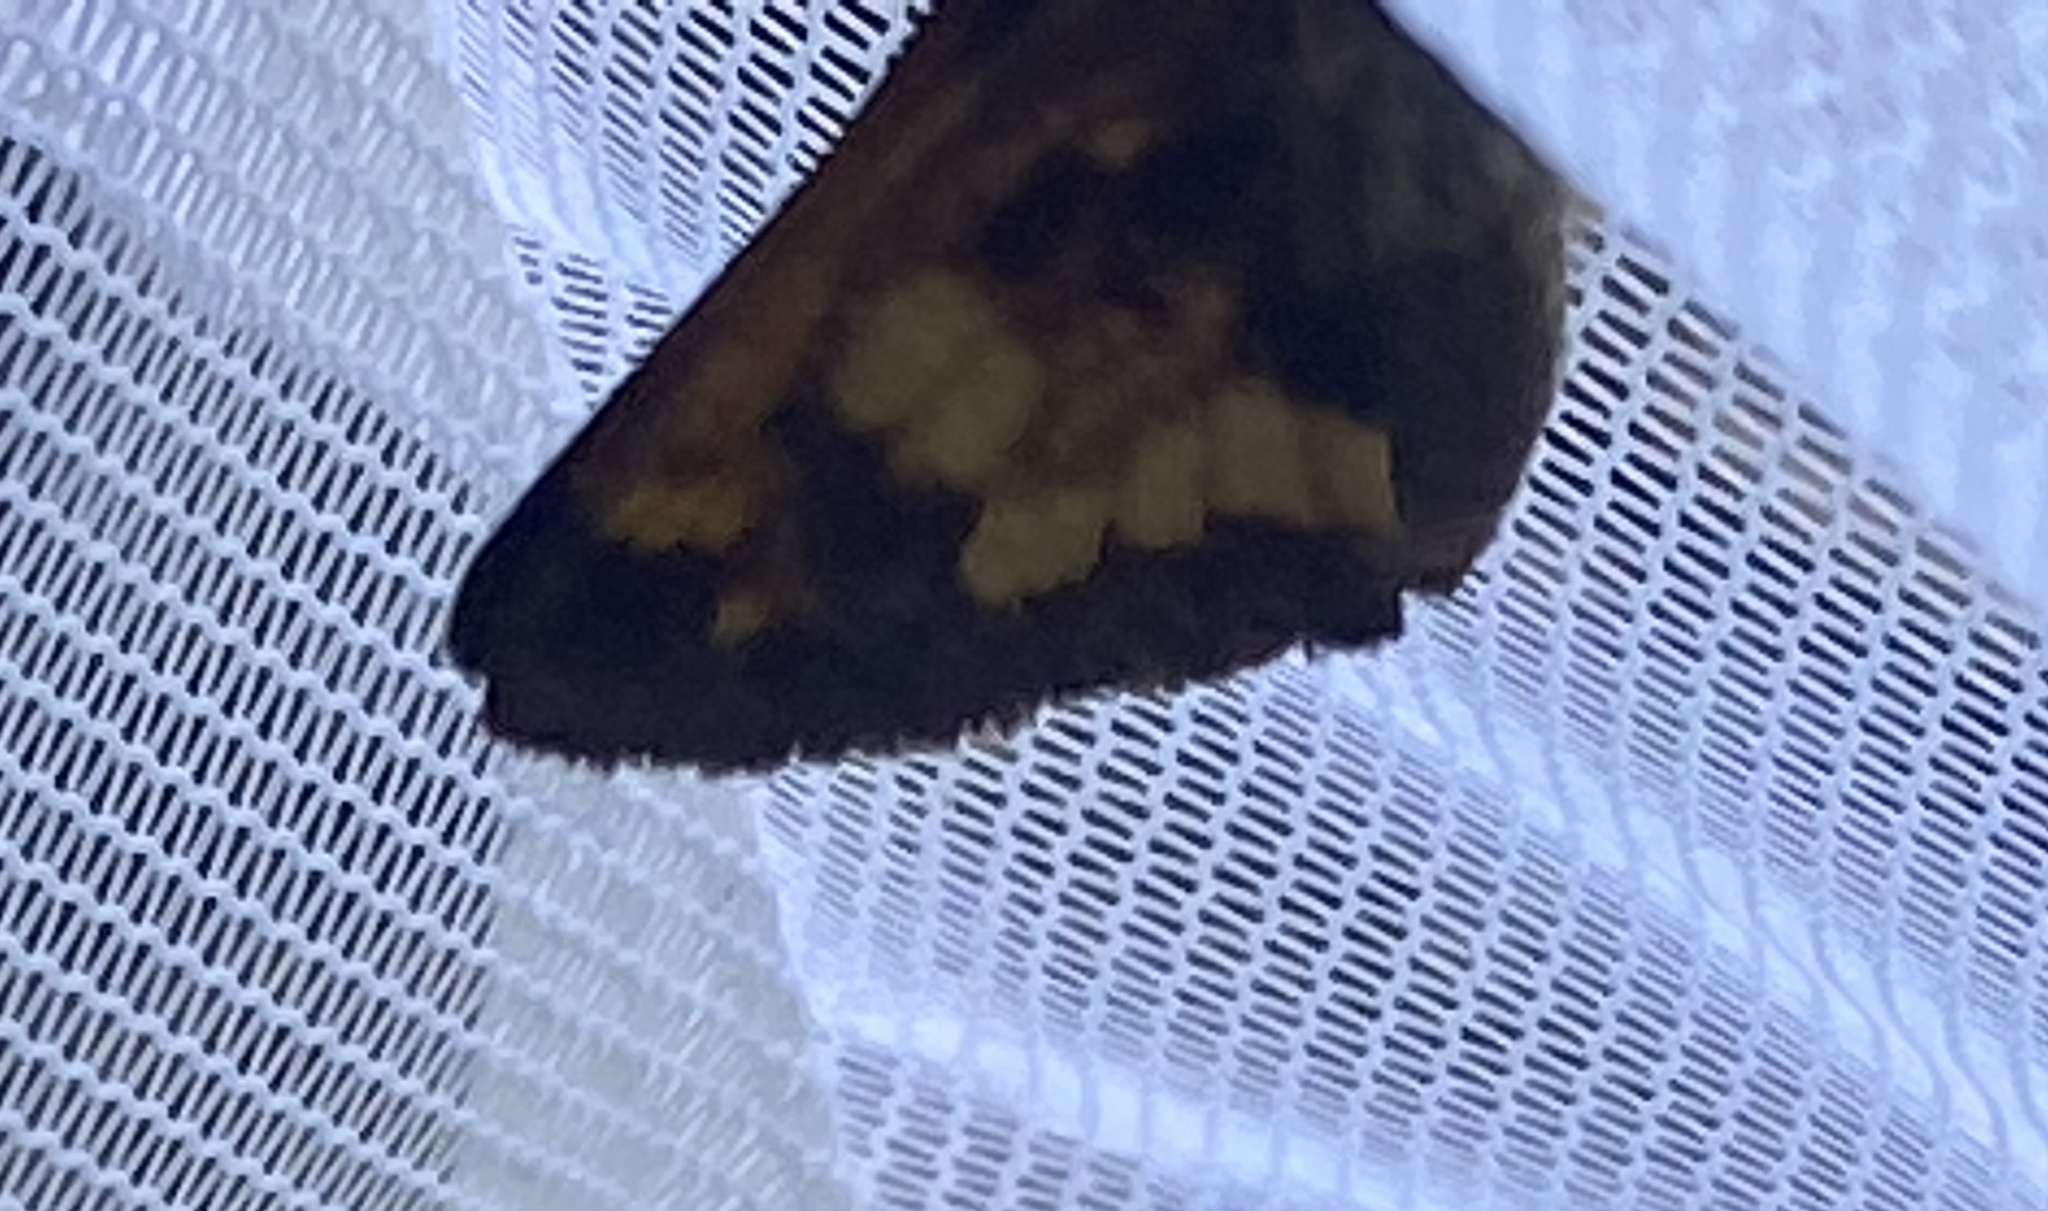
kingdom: Animalia
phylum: Arthropoda
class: Insecta
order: Lepidoptera
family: Hesperiidae
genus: Lon
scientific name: Lon hobomok
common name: Hobomok skipper
